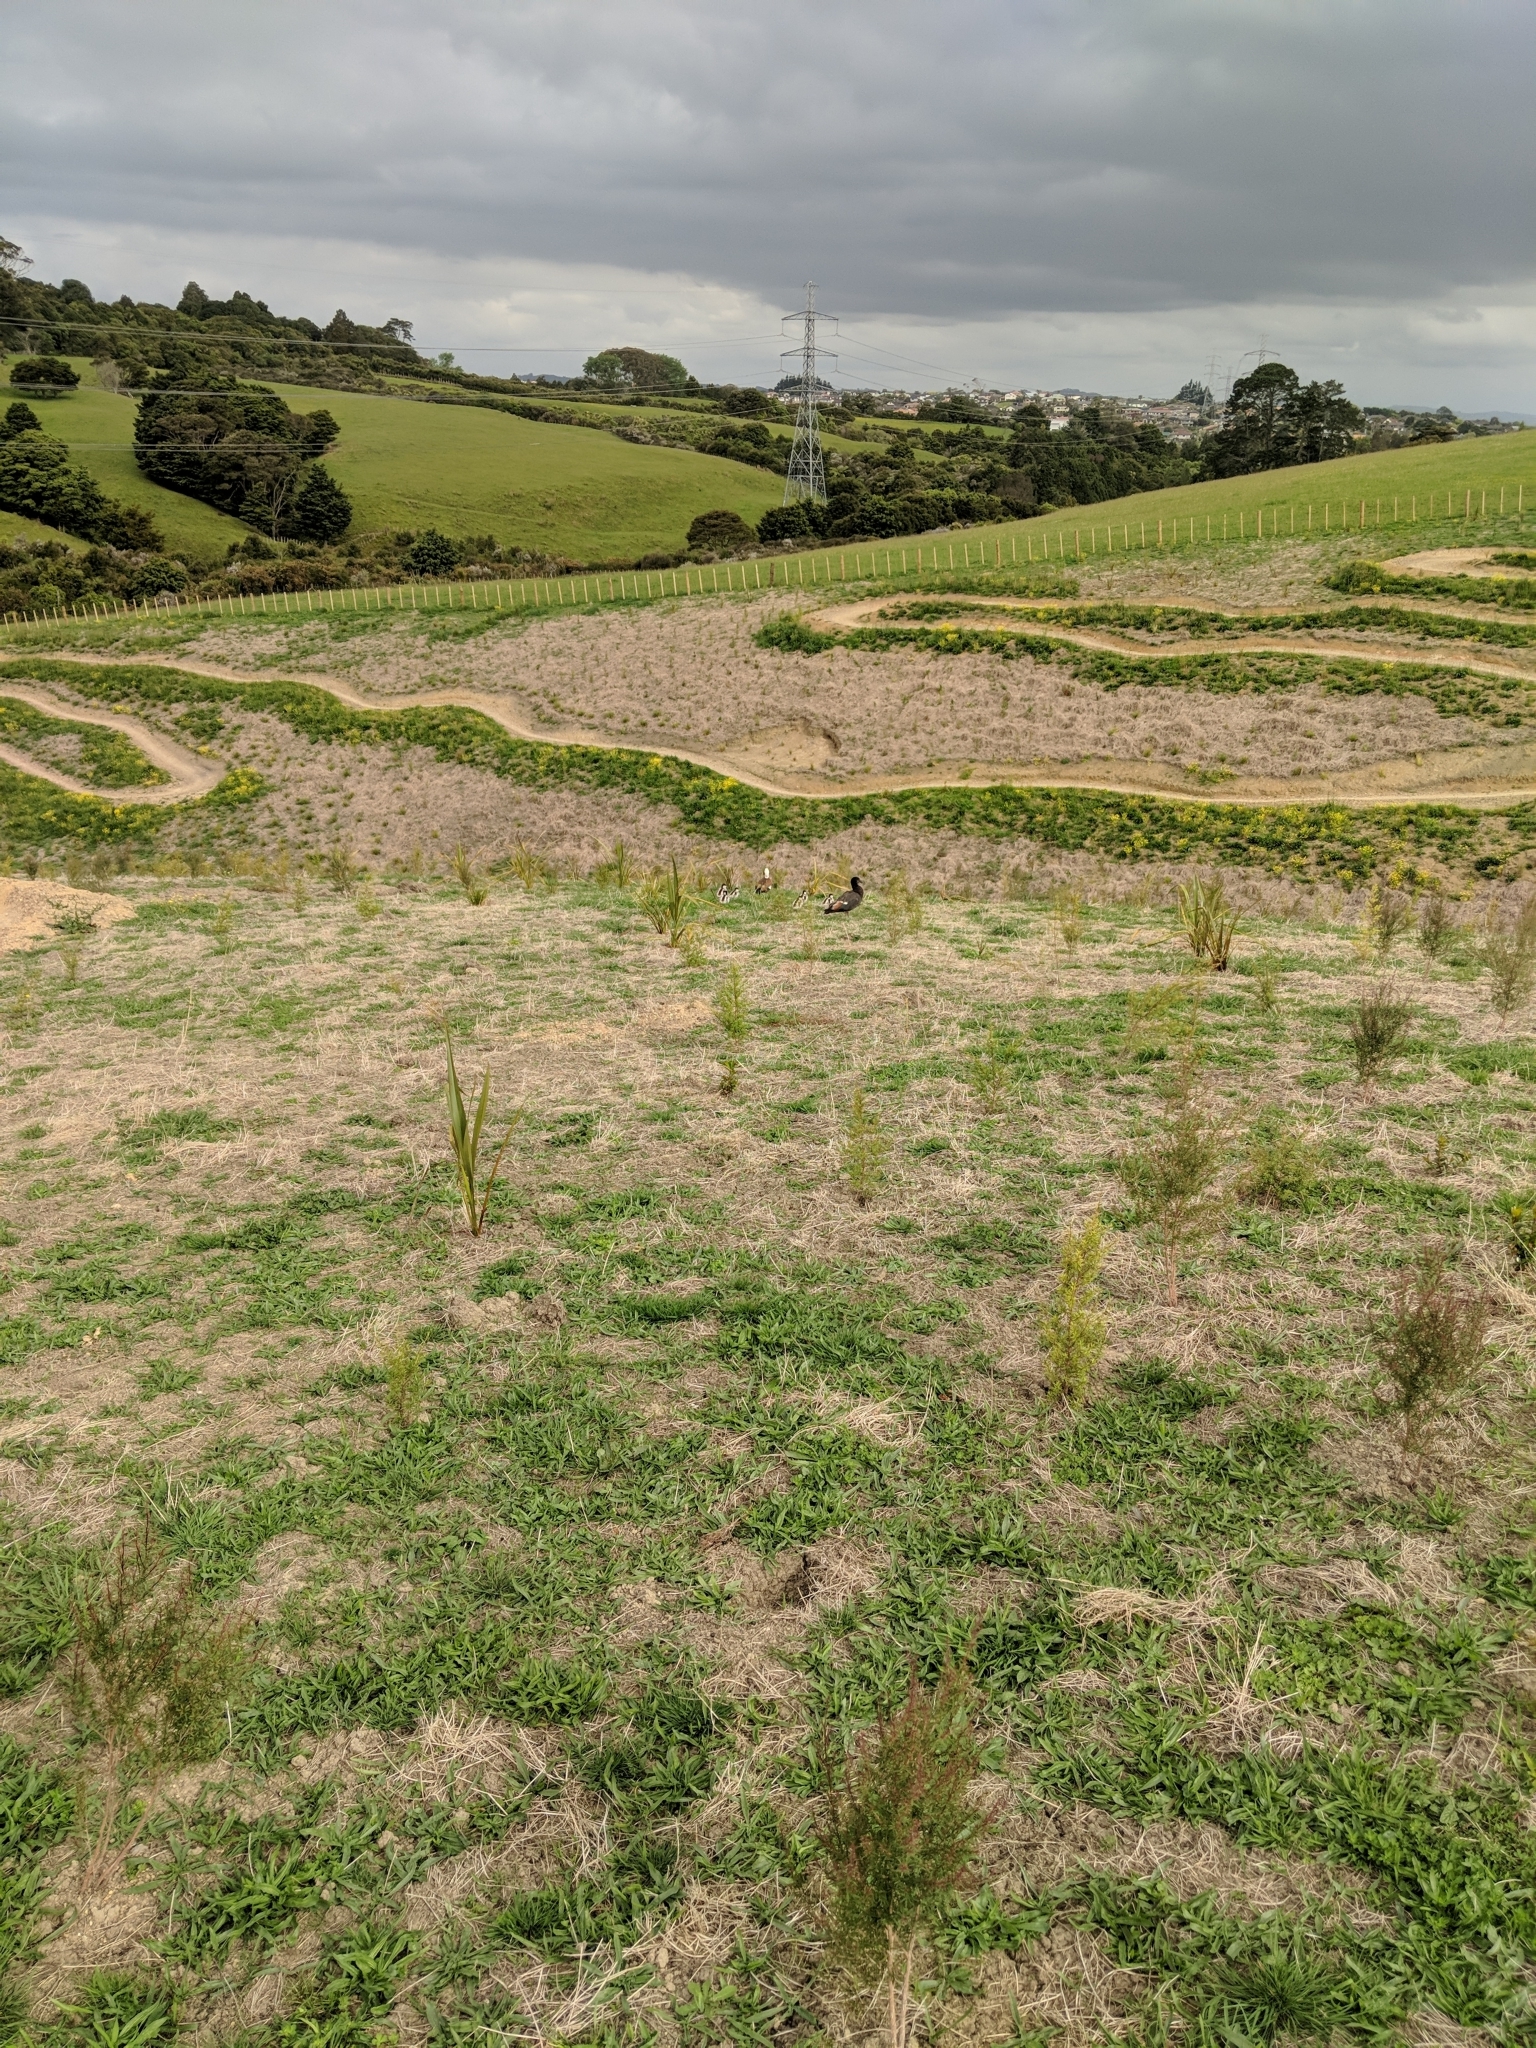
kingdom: Animalia
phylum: Chordata
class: Aves
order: Anseriformes
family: Anatidae
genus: Tadorna
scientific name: Tadorna variegata
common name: Paradise shelduck
